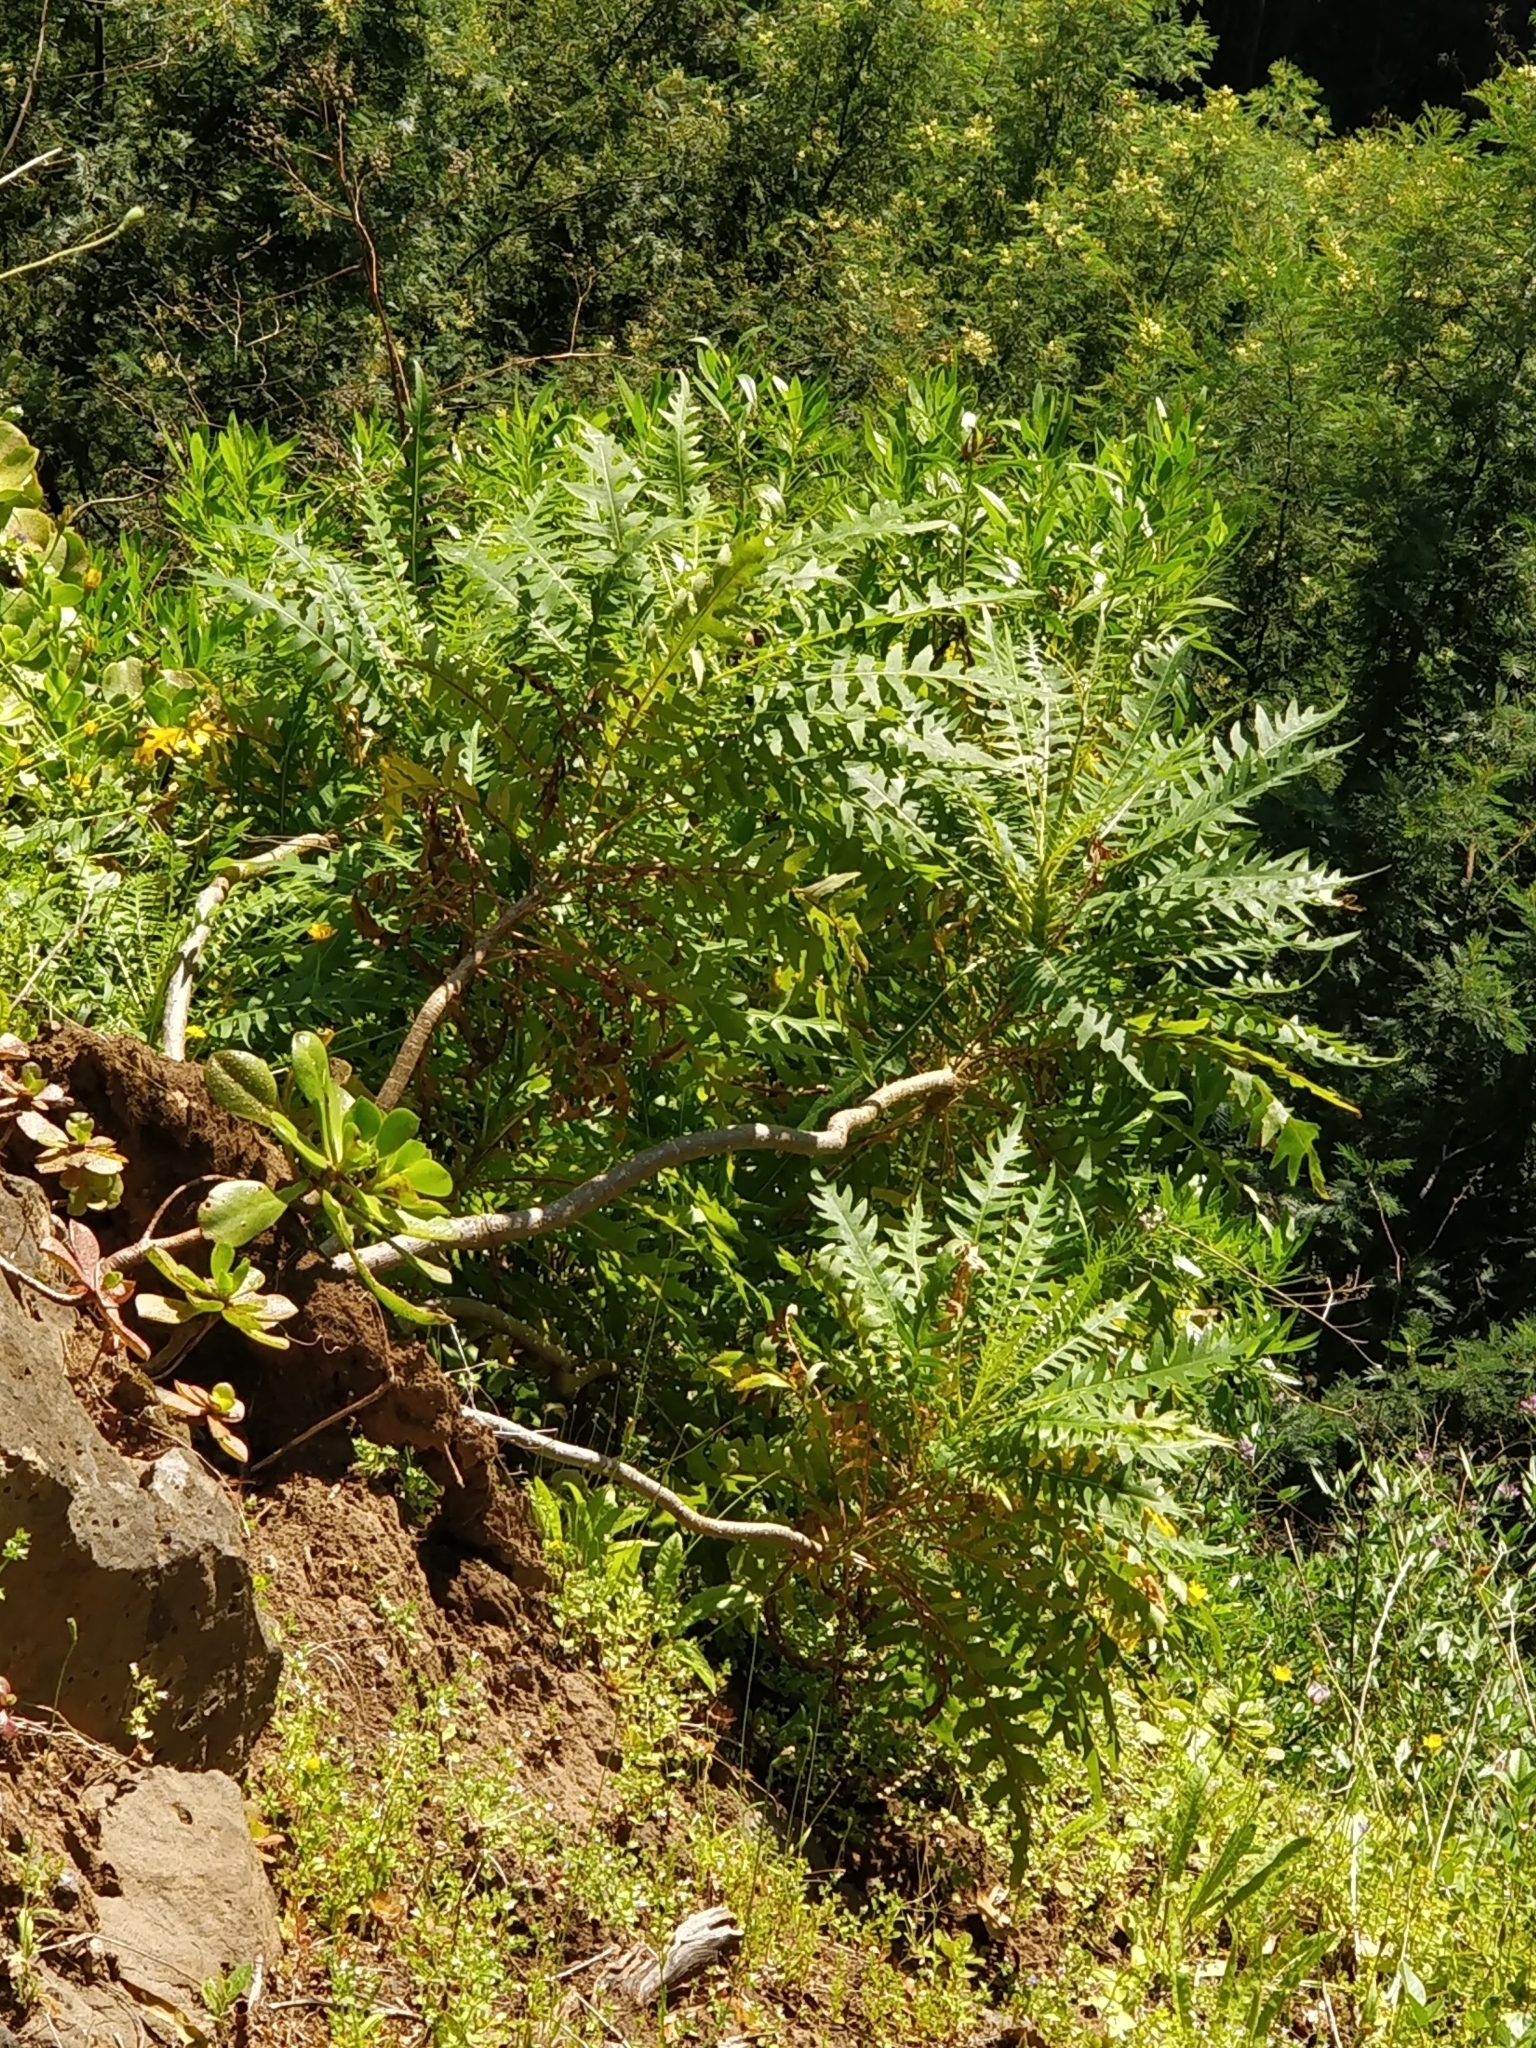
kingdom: Plantae
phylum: Tracheophyta
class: Magnoliopsida
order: Asterales
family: Asteraceae
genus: Sonchus
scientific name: Sonchus pinnatus
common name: Wing-leaved sow-thistle
